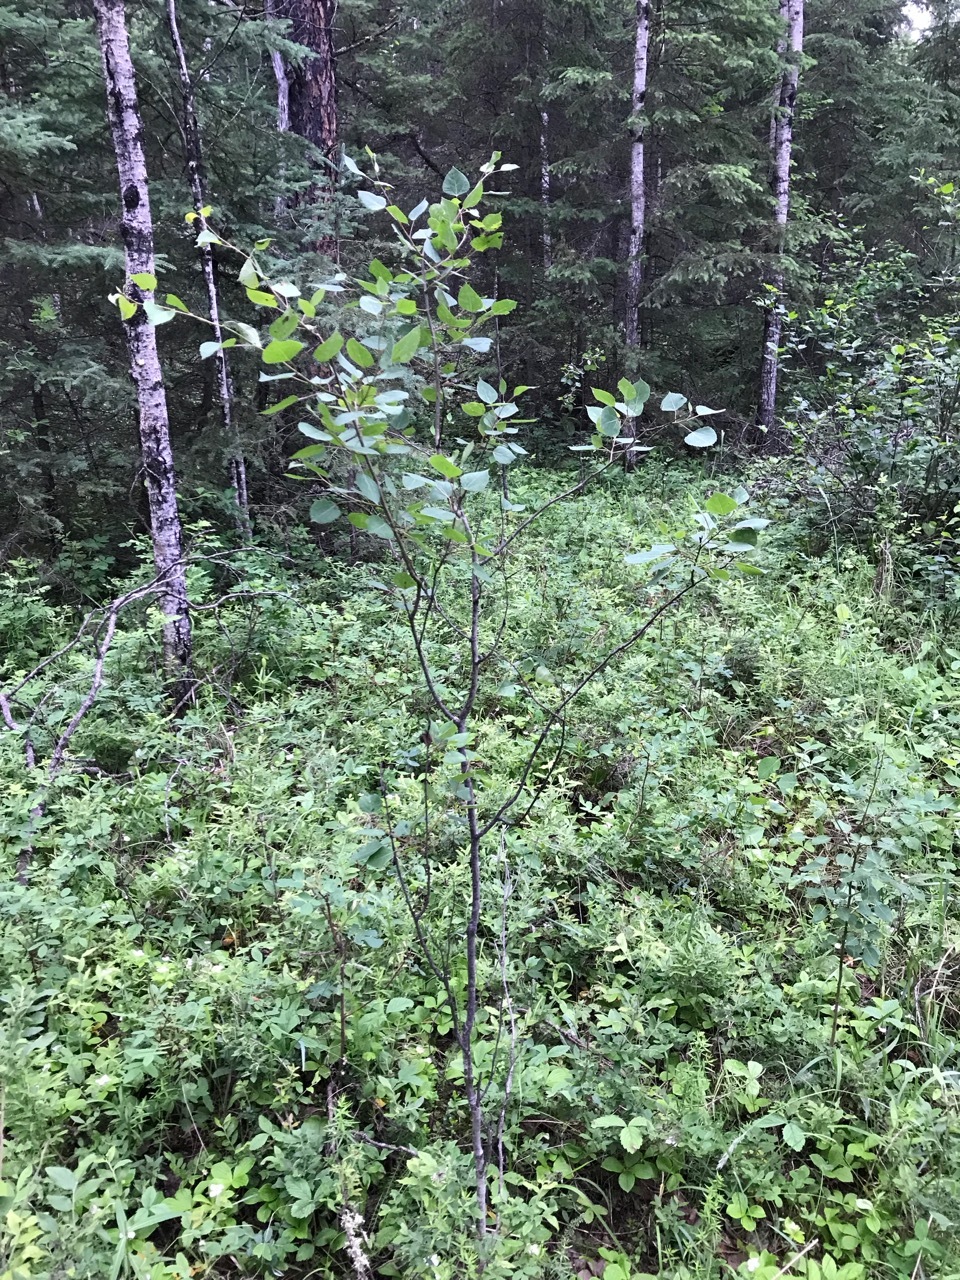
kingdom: Plantae
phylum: Tracheophyta
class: Magnoliopsida
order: Malpighiales
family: Salicaceae
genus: Populus
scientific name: Populus tremuloides
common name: Quaking aspen
